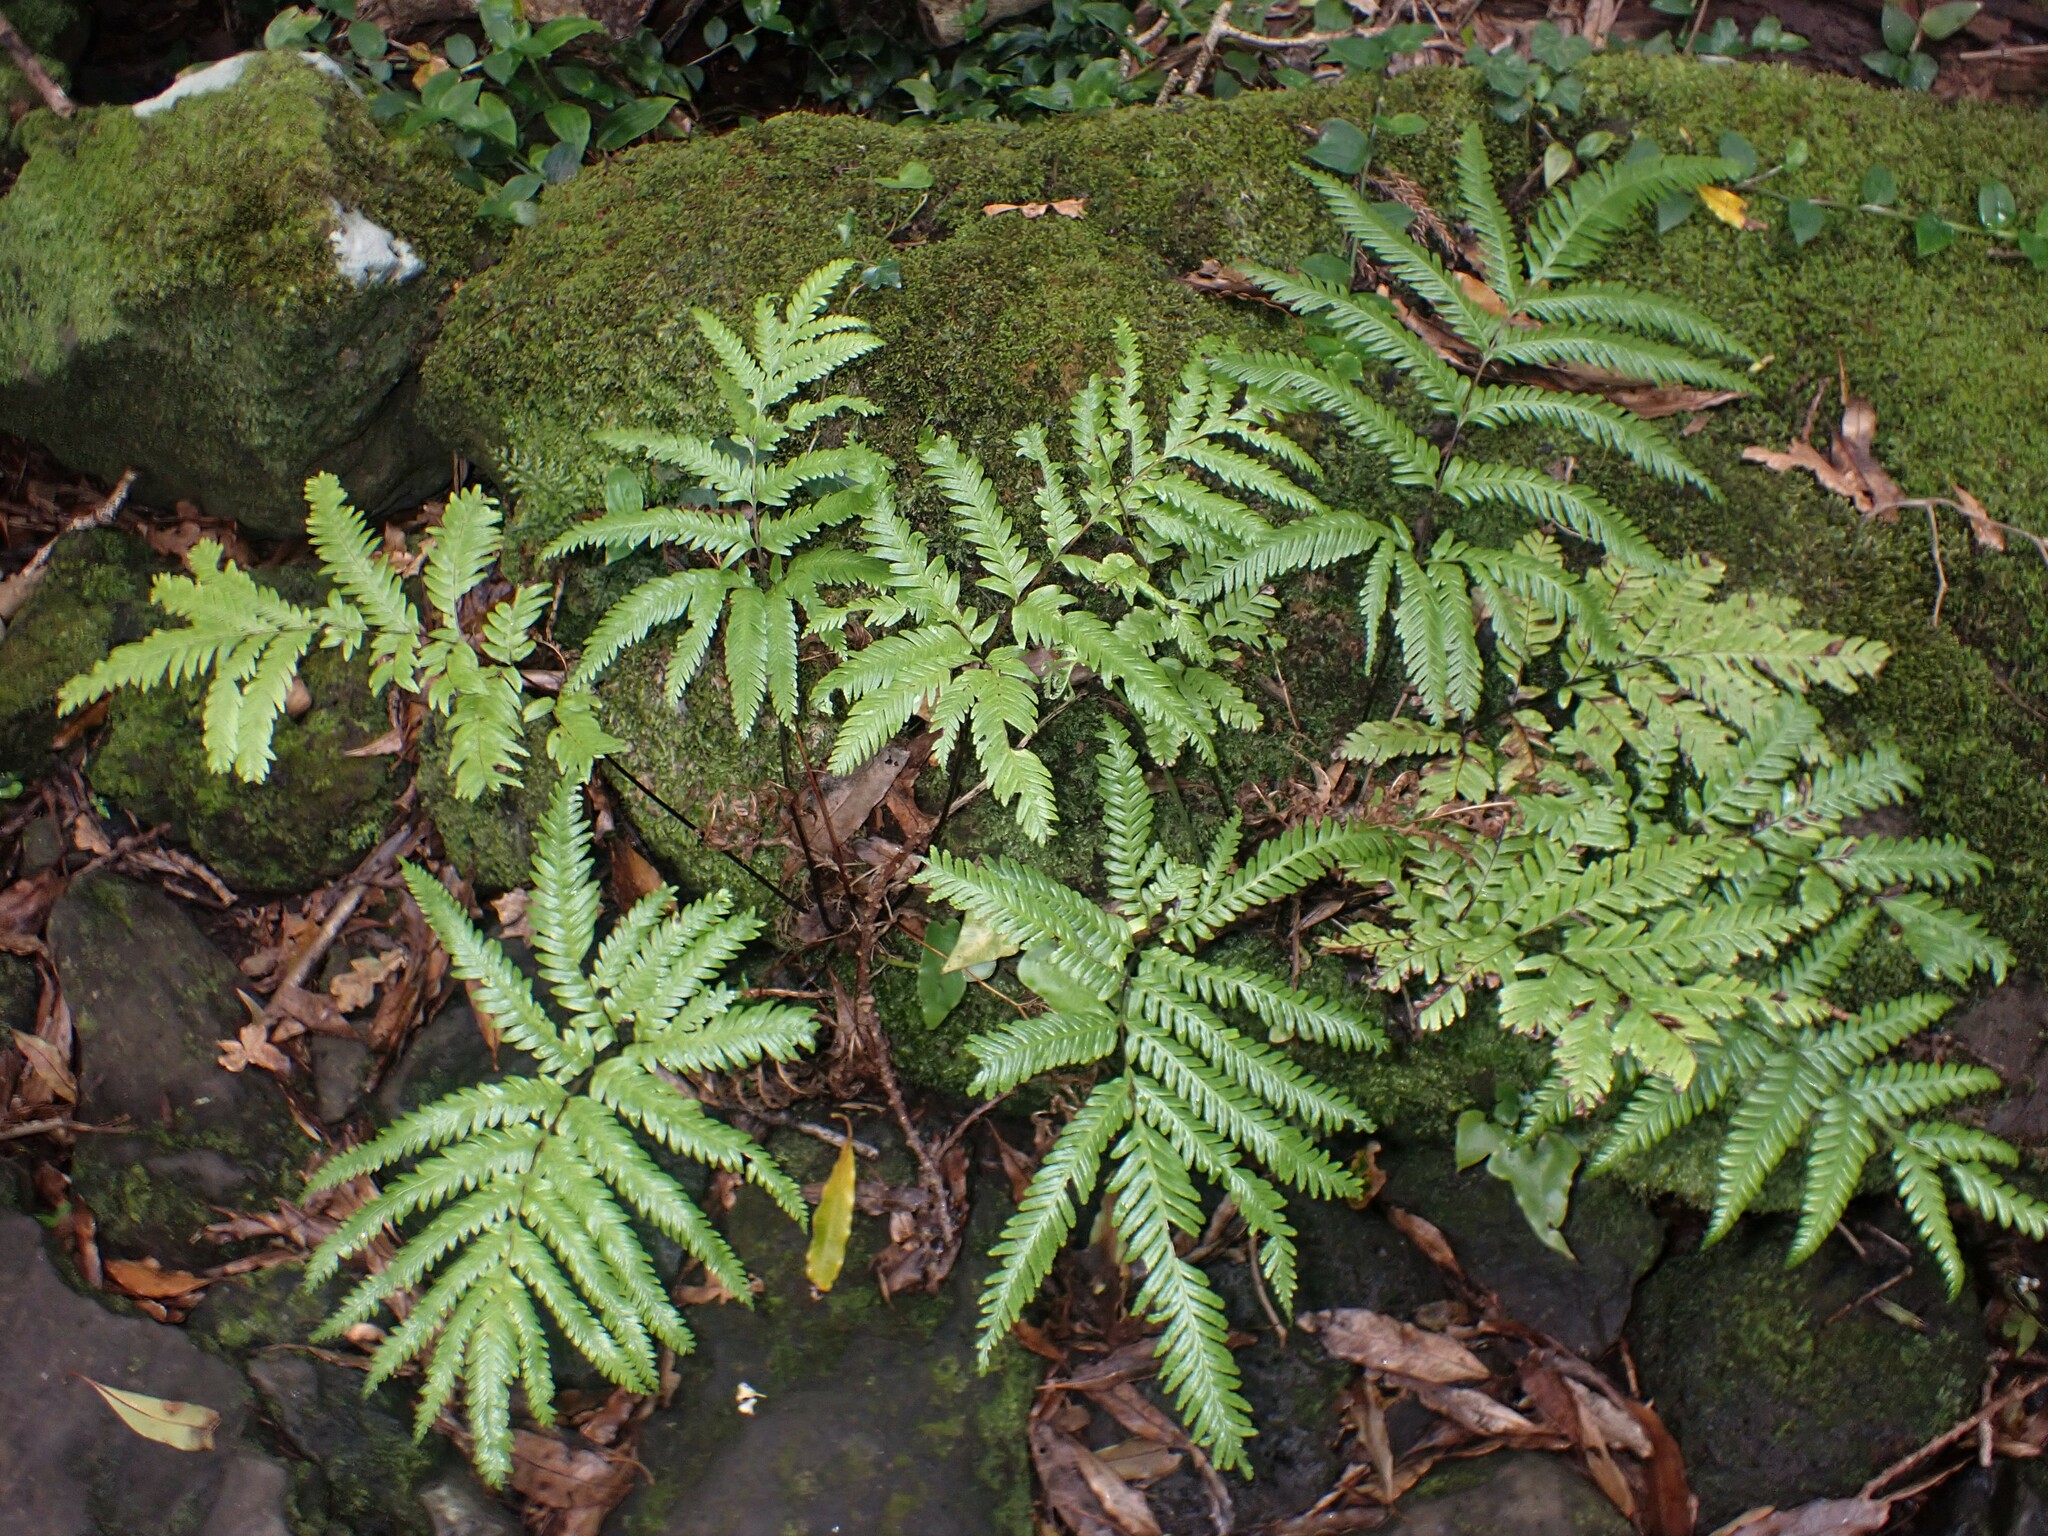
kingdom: Plantae
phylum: Tracheophyta
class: Polypodiopsida
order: Polypodiales
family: Pteridaceae
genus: Pteris
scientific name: Pteris incompleta
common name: Laurisilva brake
